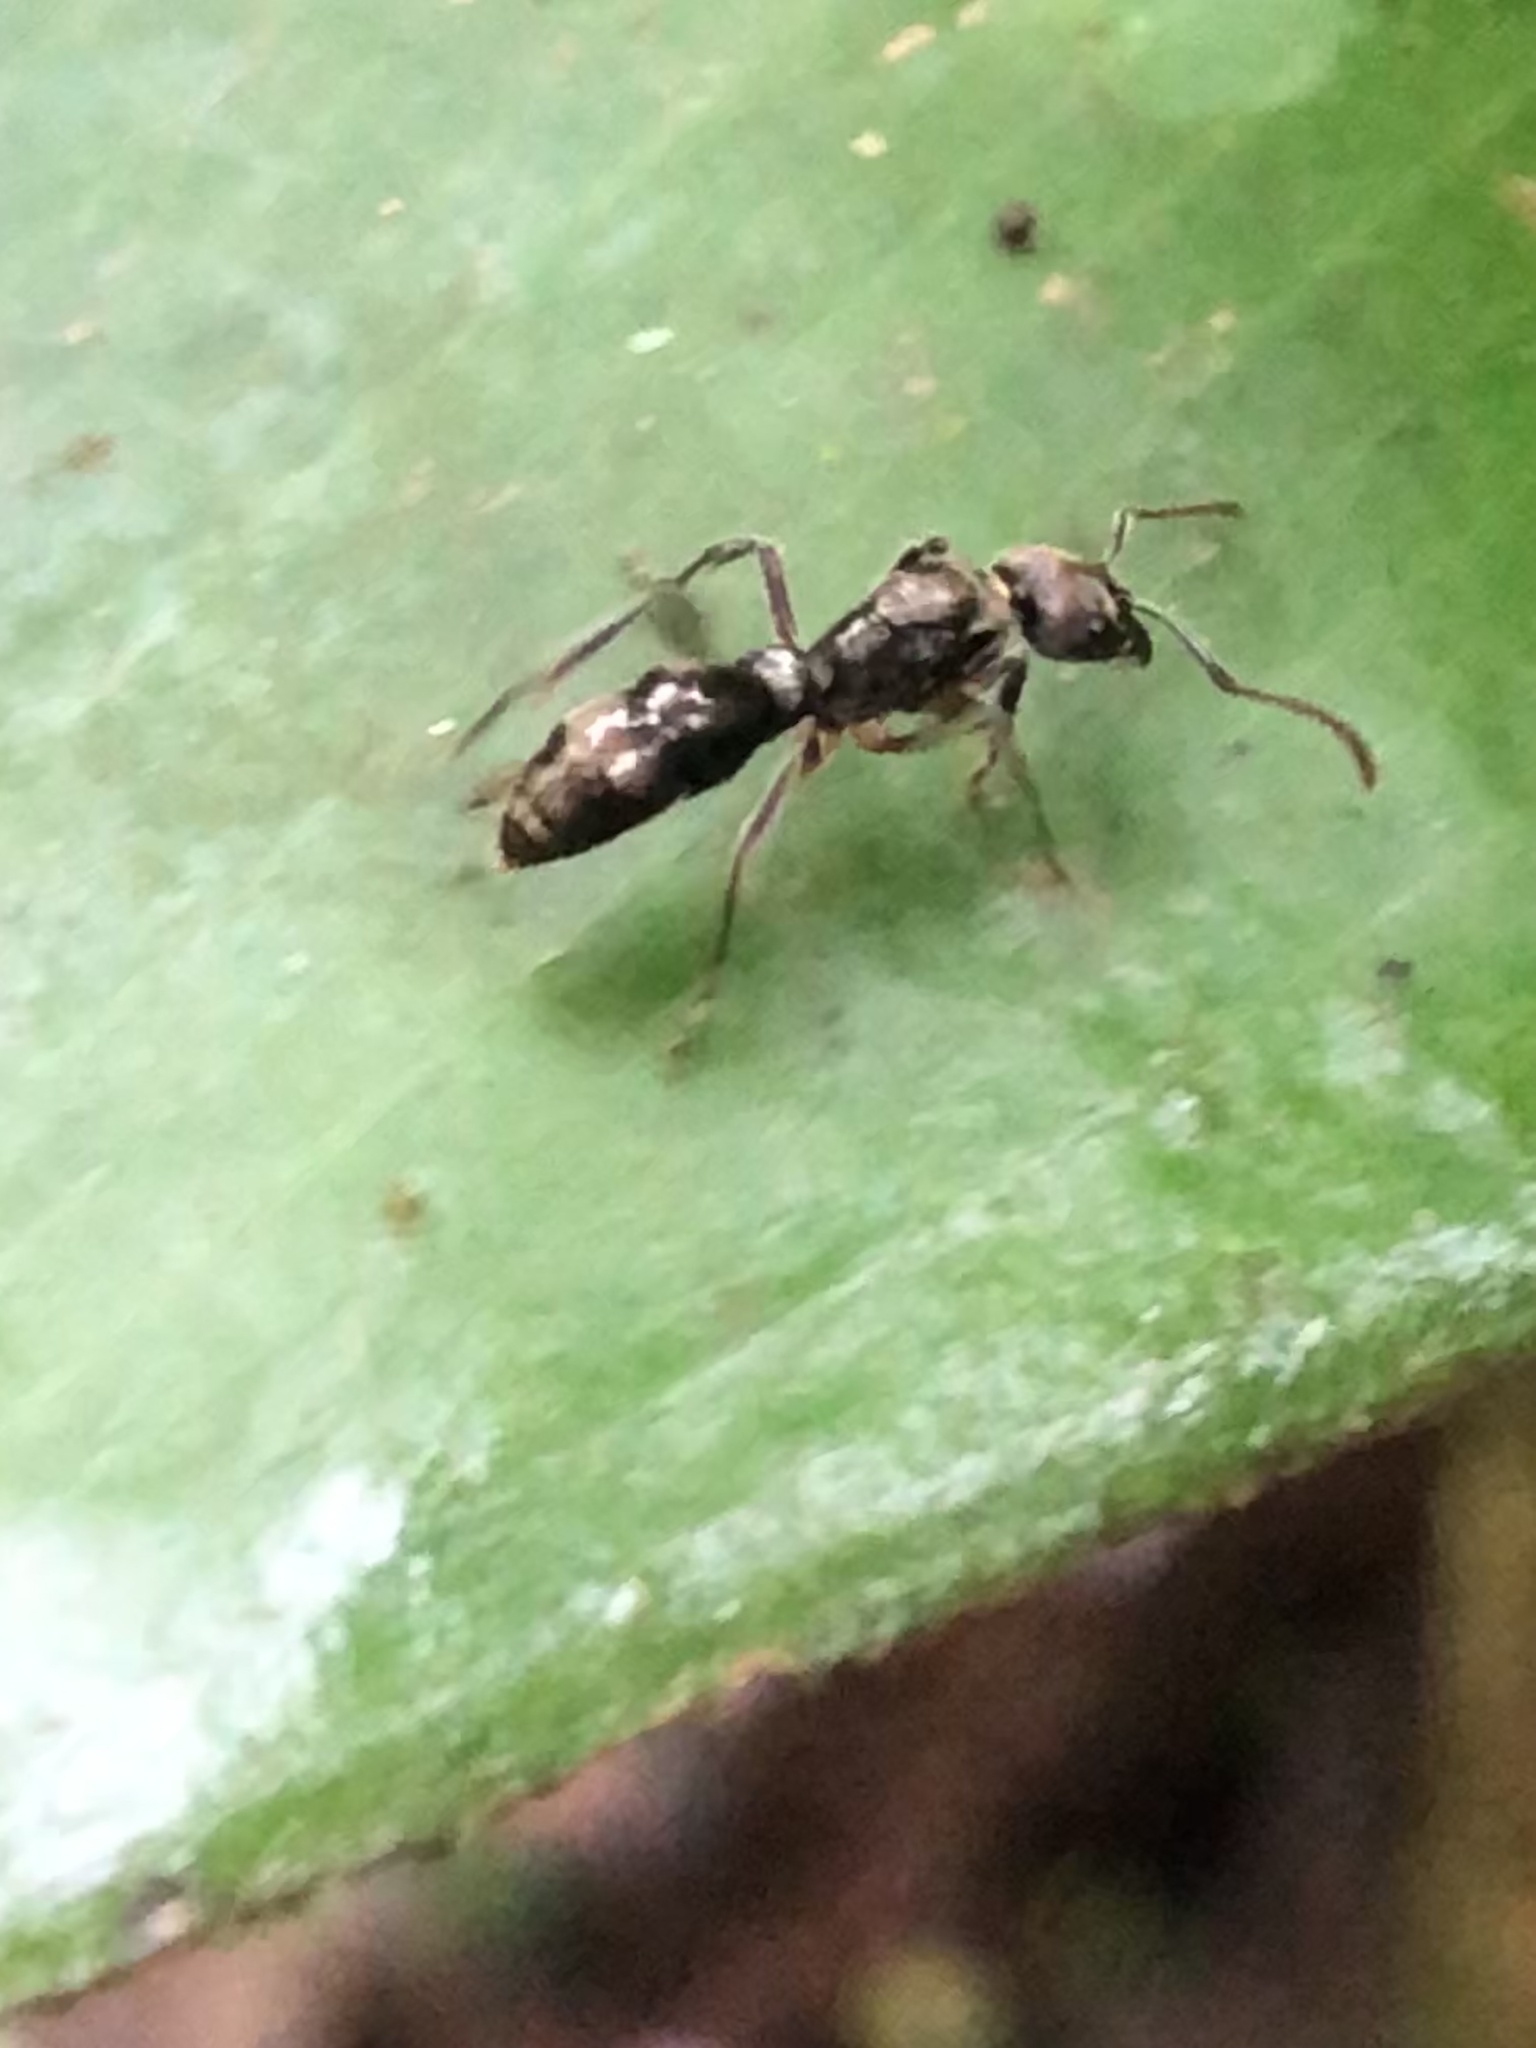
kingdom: Animalia
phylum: Arthropoda
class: Insecta
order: Hymenoptera
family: Formicidae
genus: Neoponera
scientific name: Neoponera
